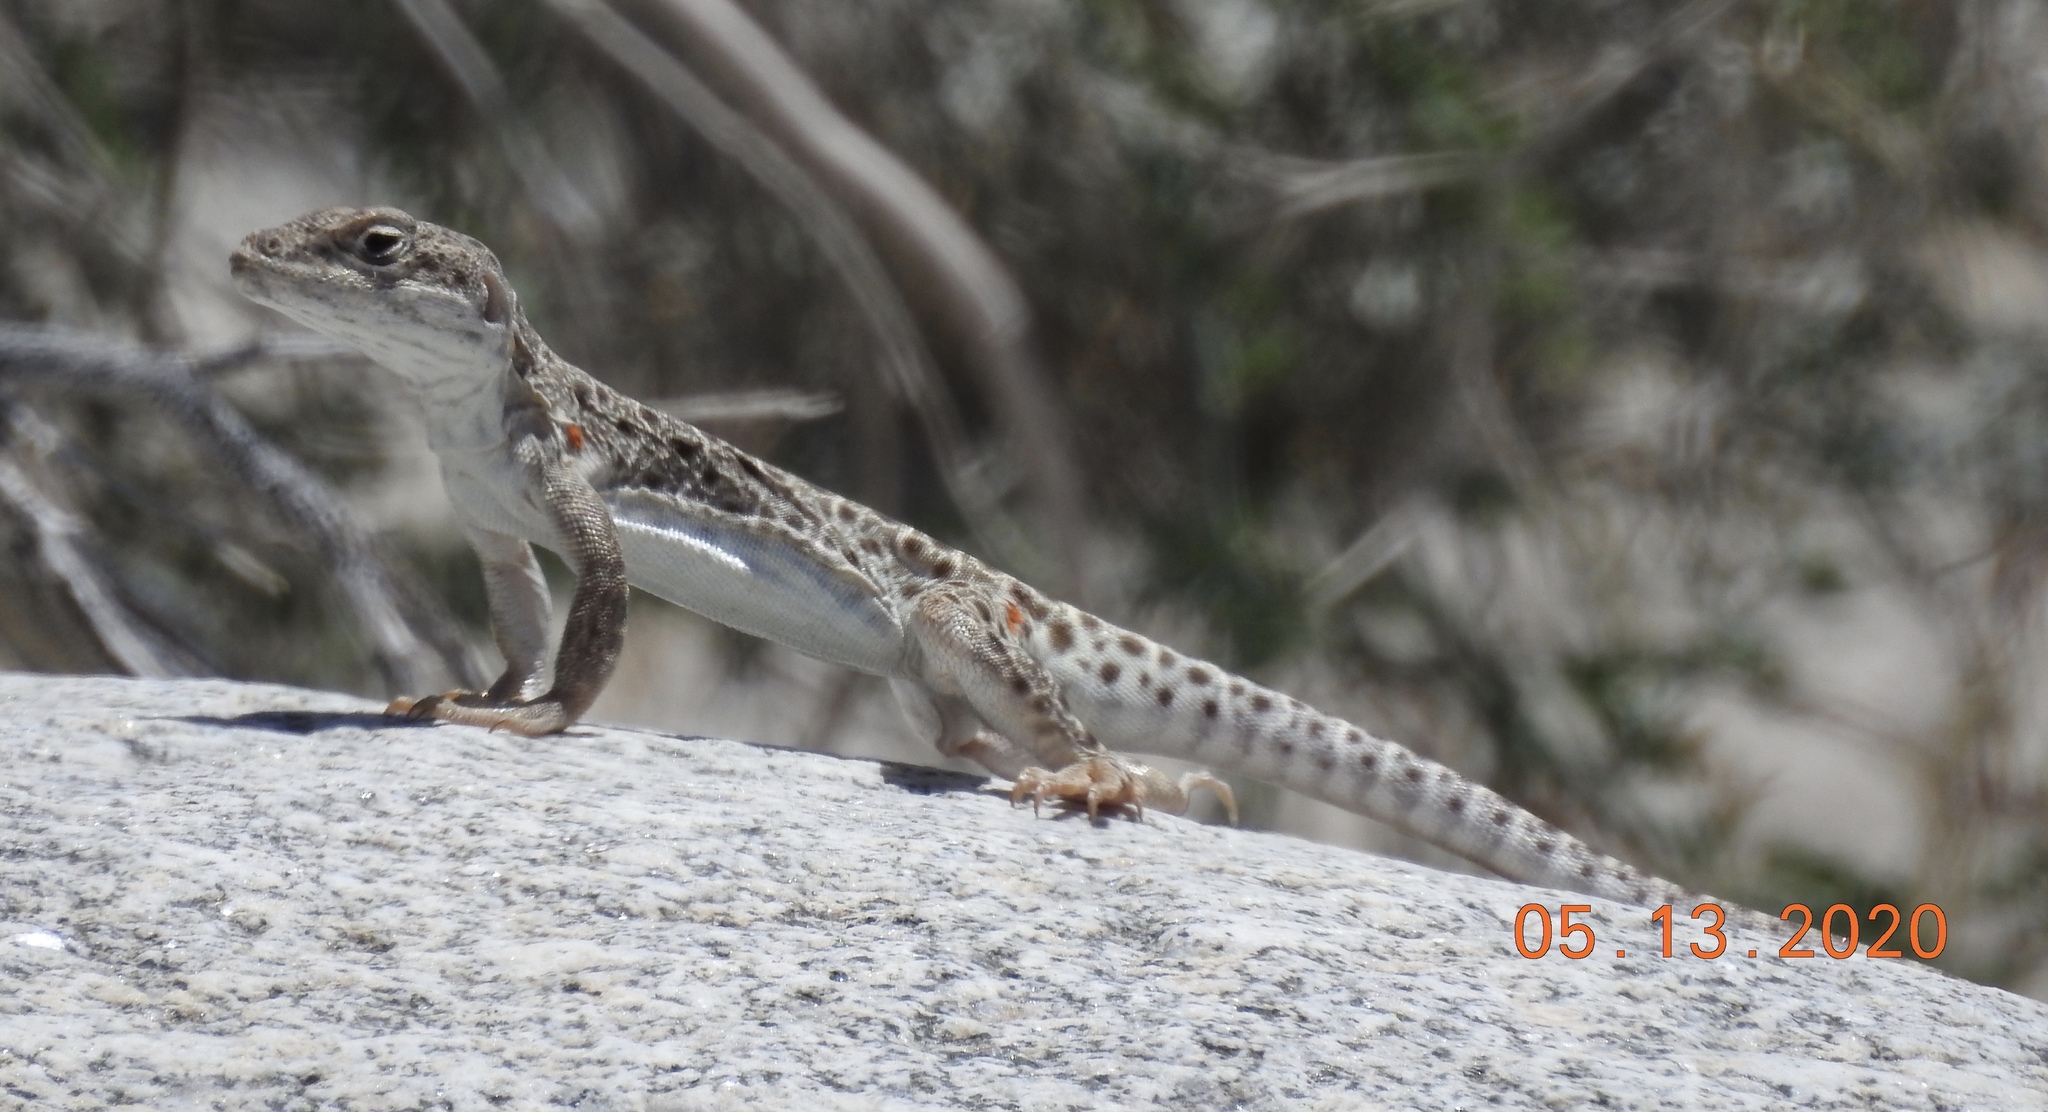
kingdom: Animalia
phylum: Chordata
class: Squamata
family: Crotaphytidae
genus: Gambelia
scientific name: Gambelia wislizenii
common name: Longnose leopard lizard
